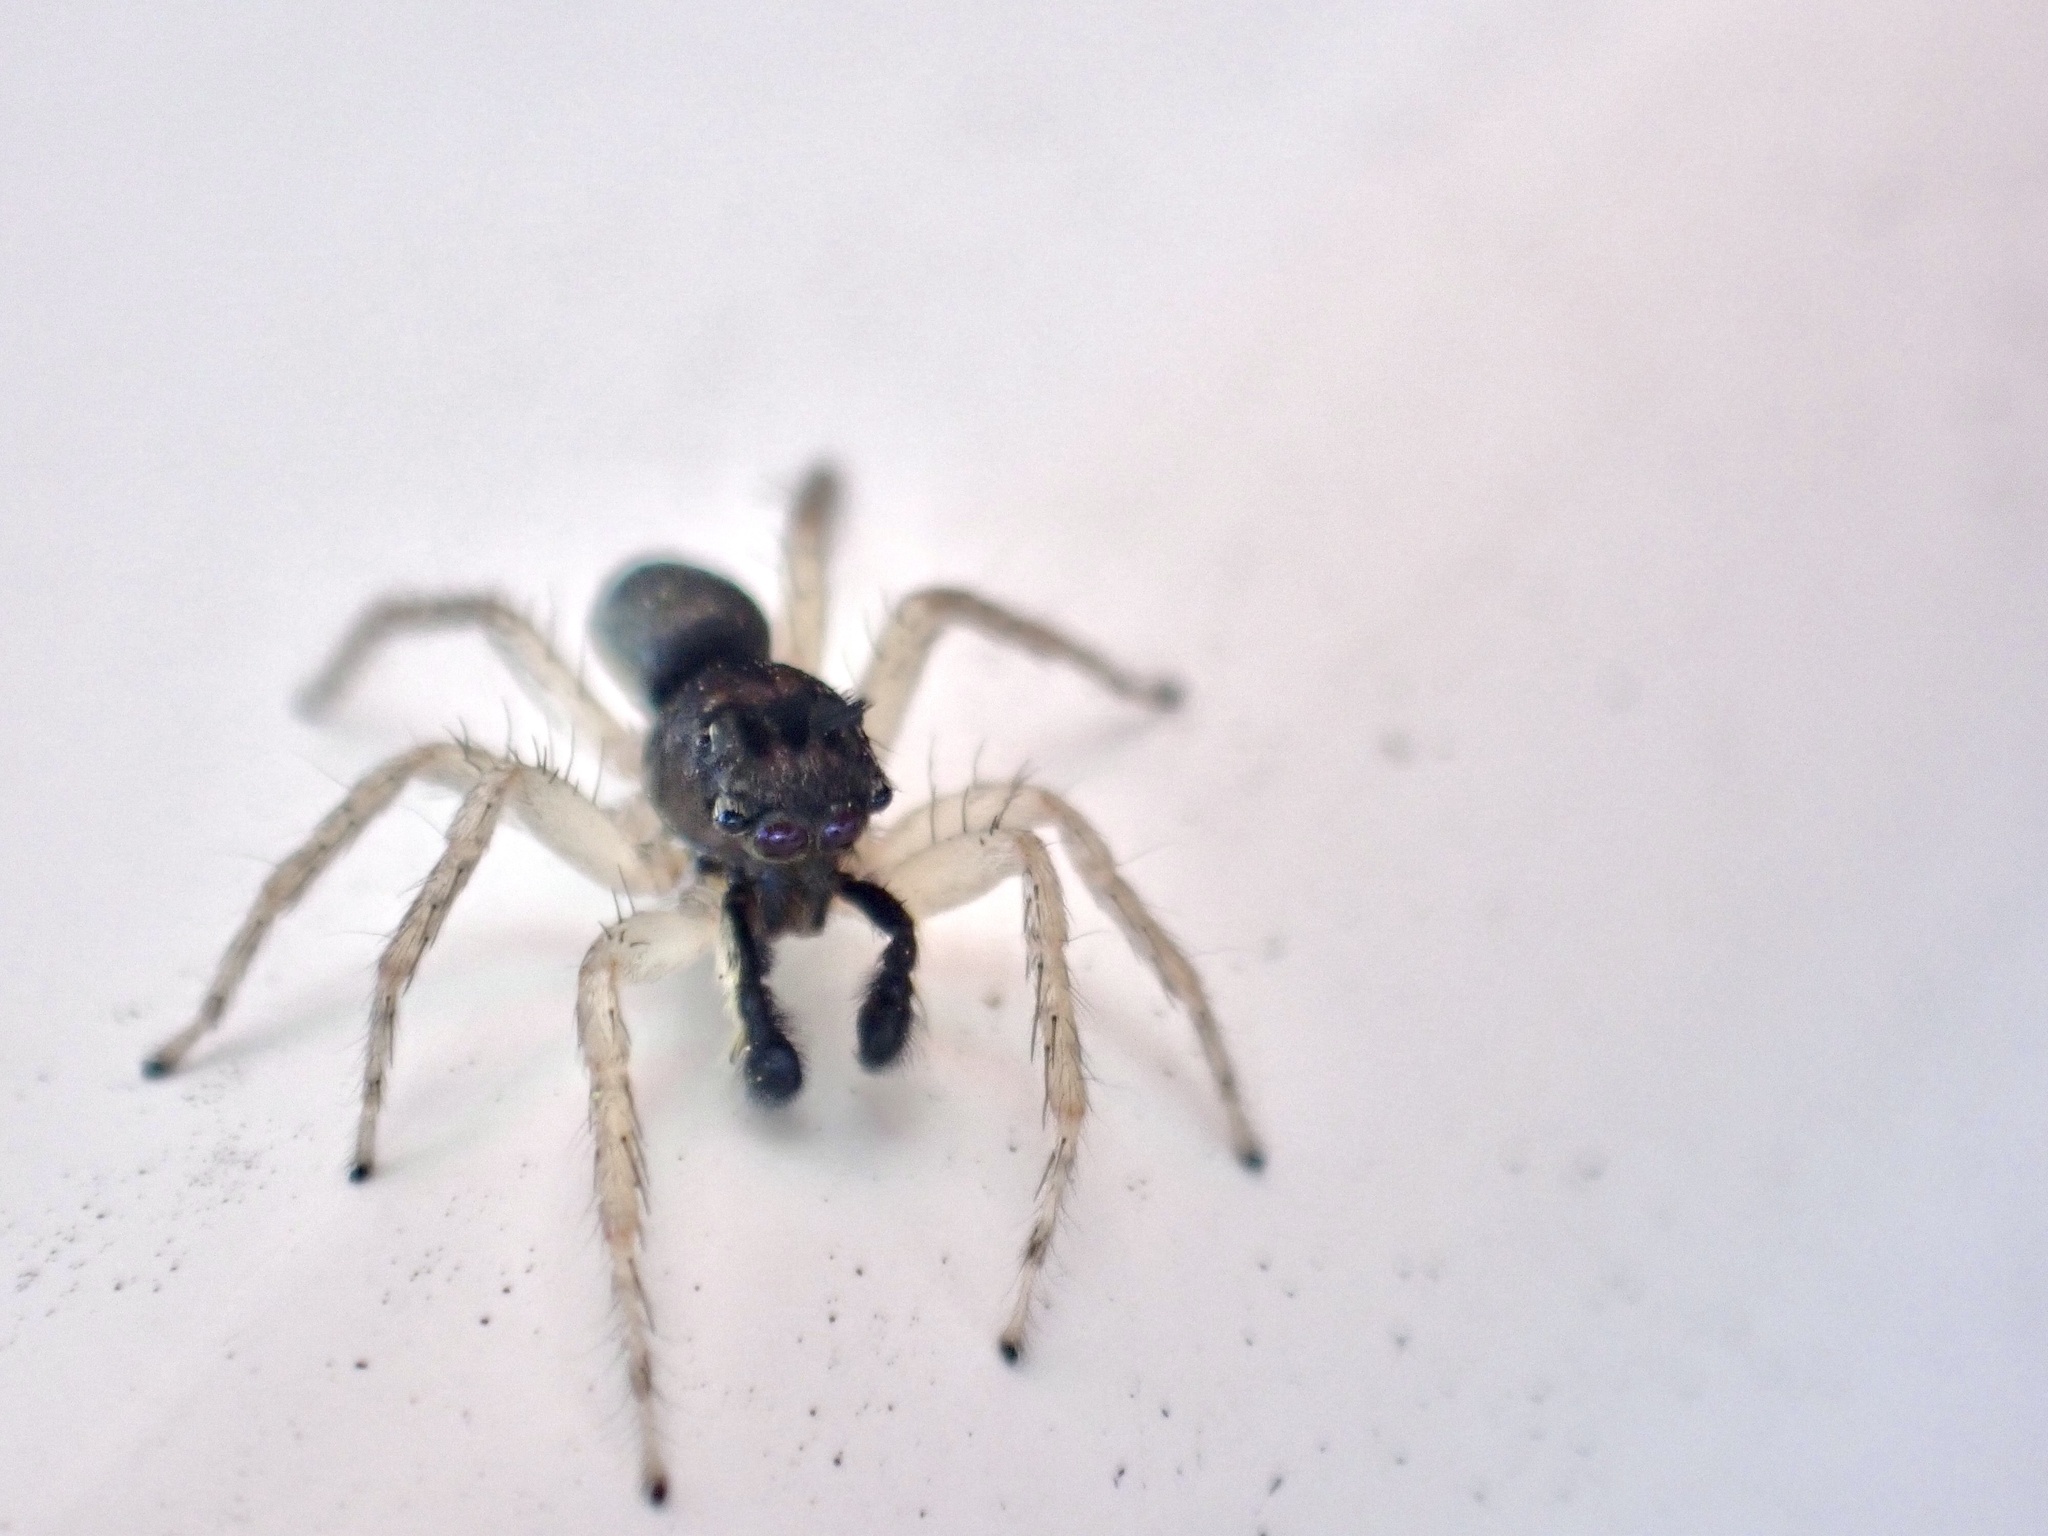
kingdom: Animalia
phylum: Arthropoda
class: Arachnida
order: Araneae
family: Salticidae
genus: Maevia
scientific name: Maevia inclemens
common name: Dimorphic jumper
